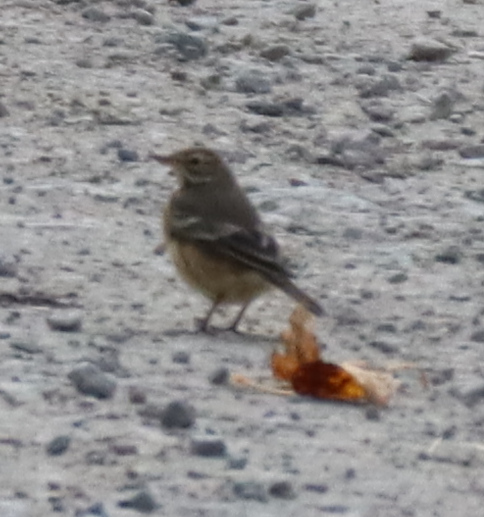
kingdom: Animalia
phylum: Chordata
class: Aves
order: Passeriformes
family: Motacillidae
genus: Anthus
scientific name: Anthus rubescens
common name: Buff-bellied pipit
